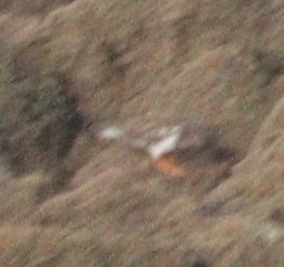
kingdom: Animalia
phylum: Chordata
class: Aves
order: Charadriiformes
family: Scolopacidae
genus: Arenaria
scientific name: Arenaria interpres
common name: Ruddy turnstone
